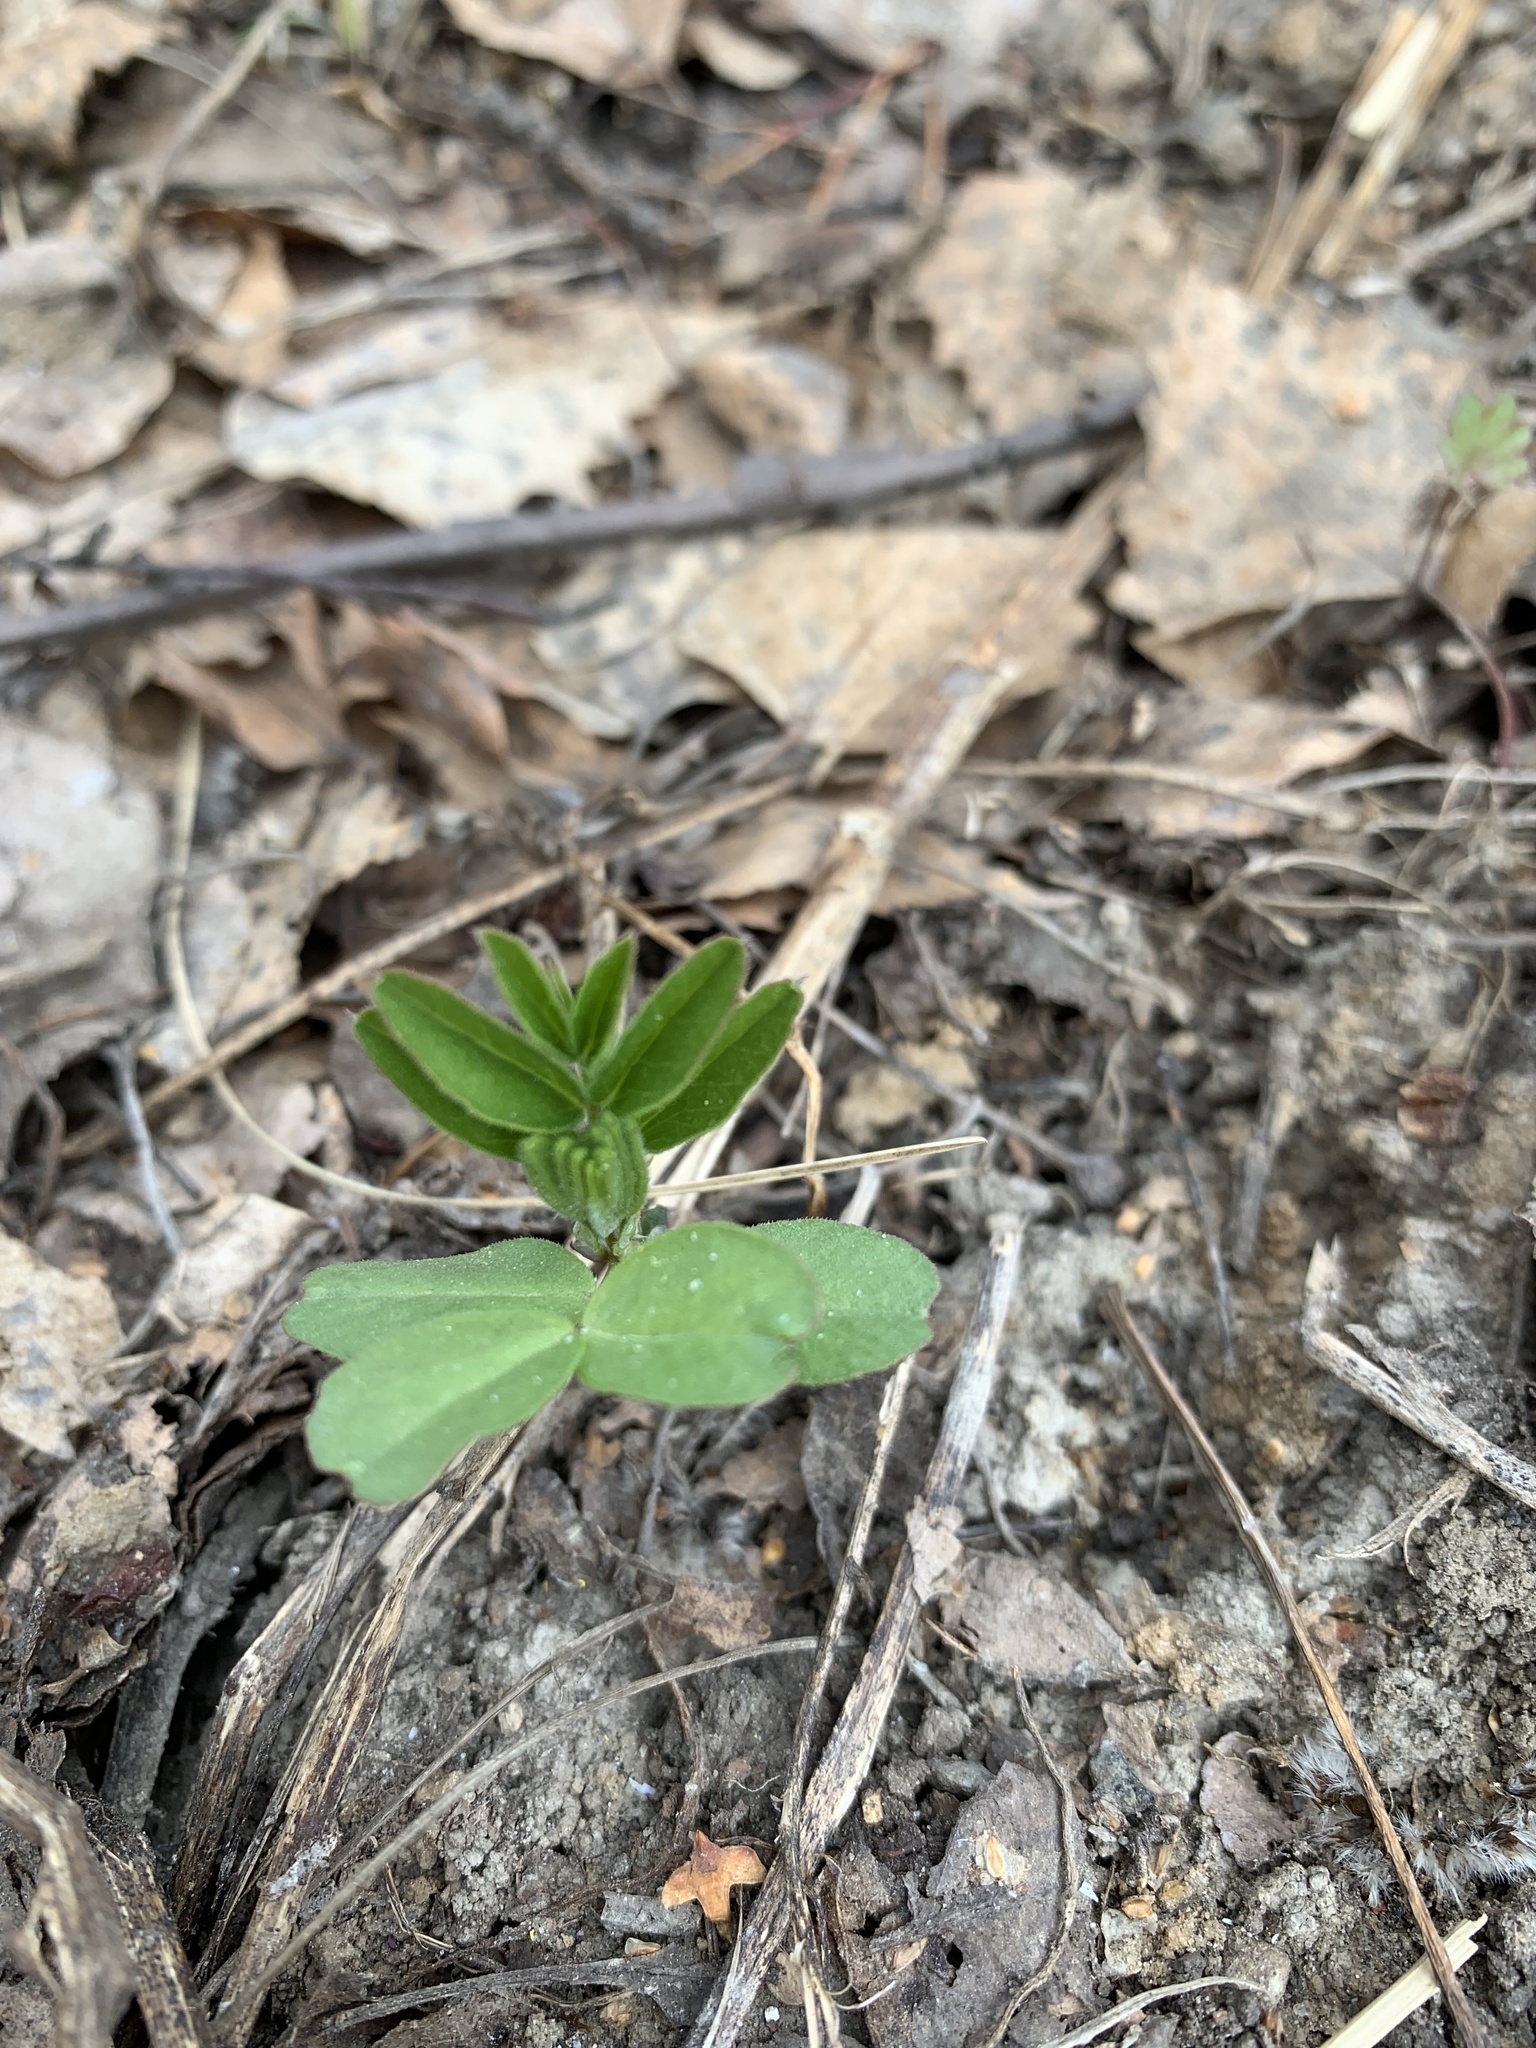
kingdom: Plantae
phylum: Tracheophyta
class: Magnoliopsida
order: Fabales
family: Fabaceae
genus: Vicia
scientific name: Vicia sepium
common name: Bush vetch
